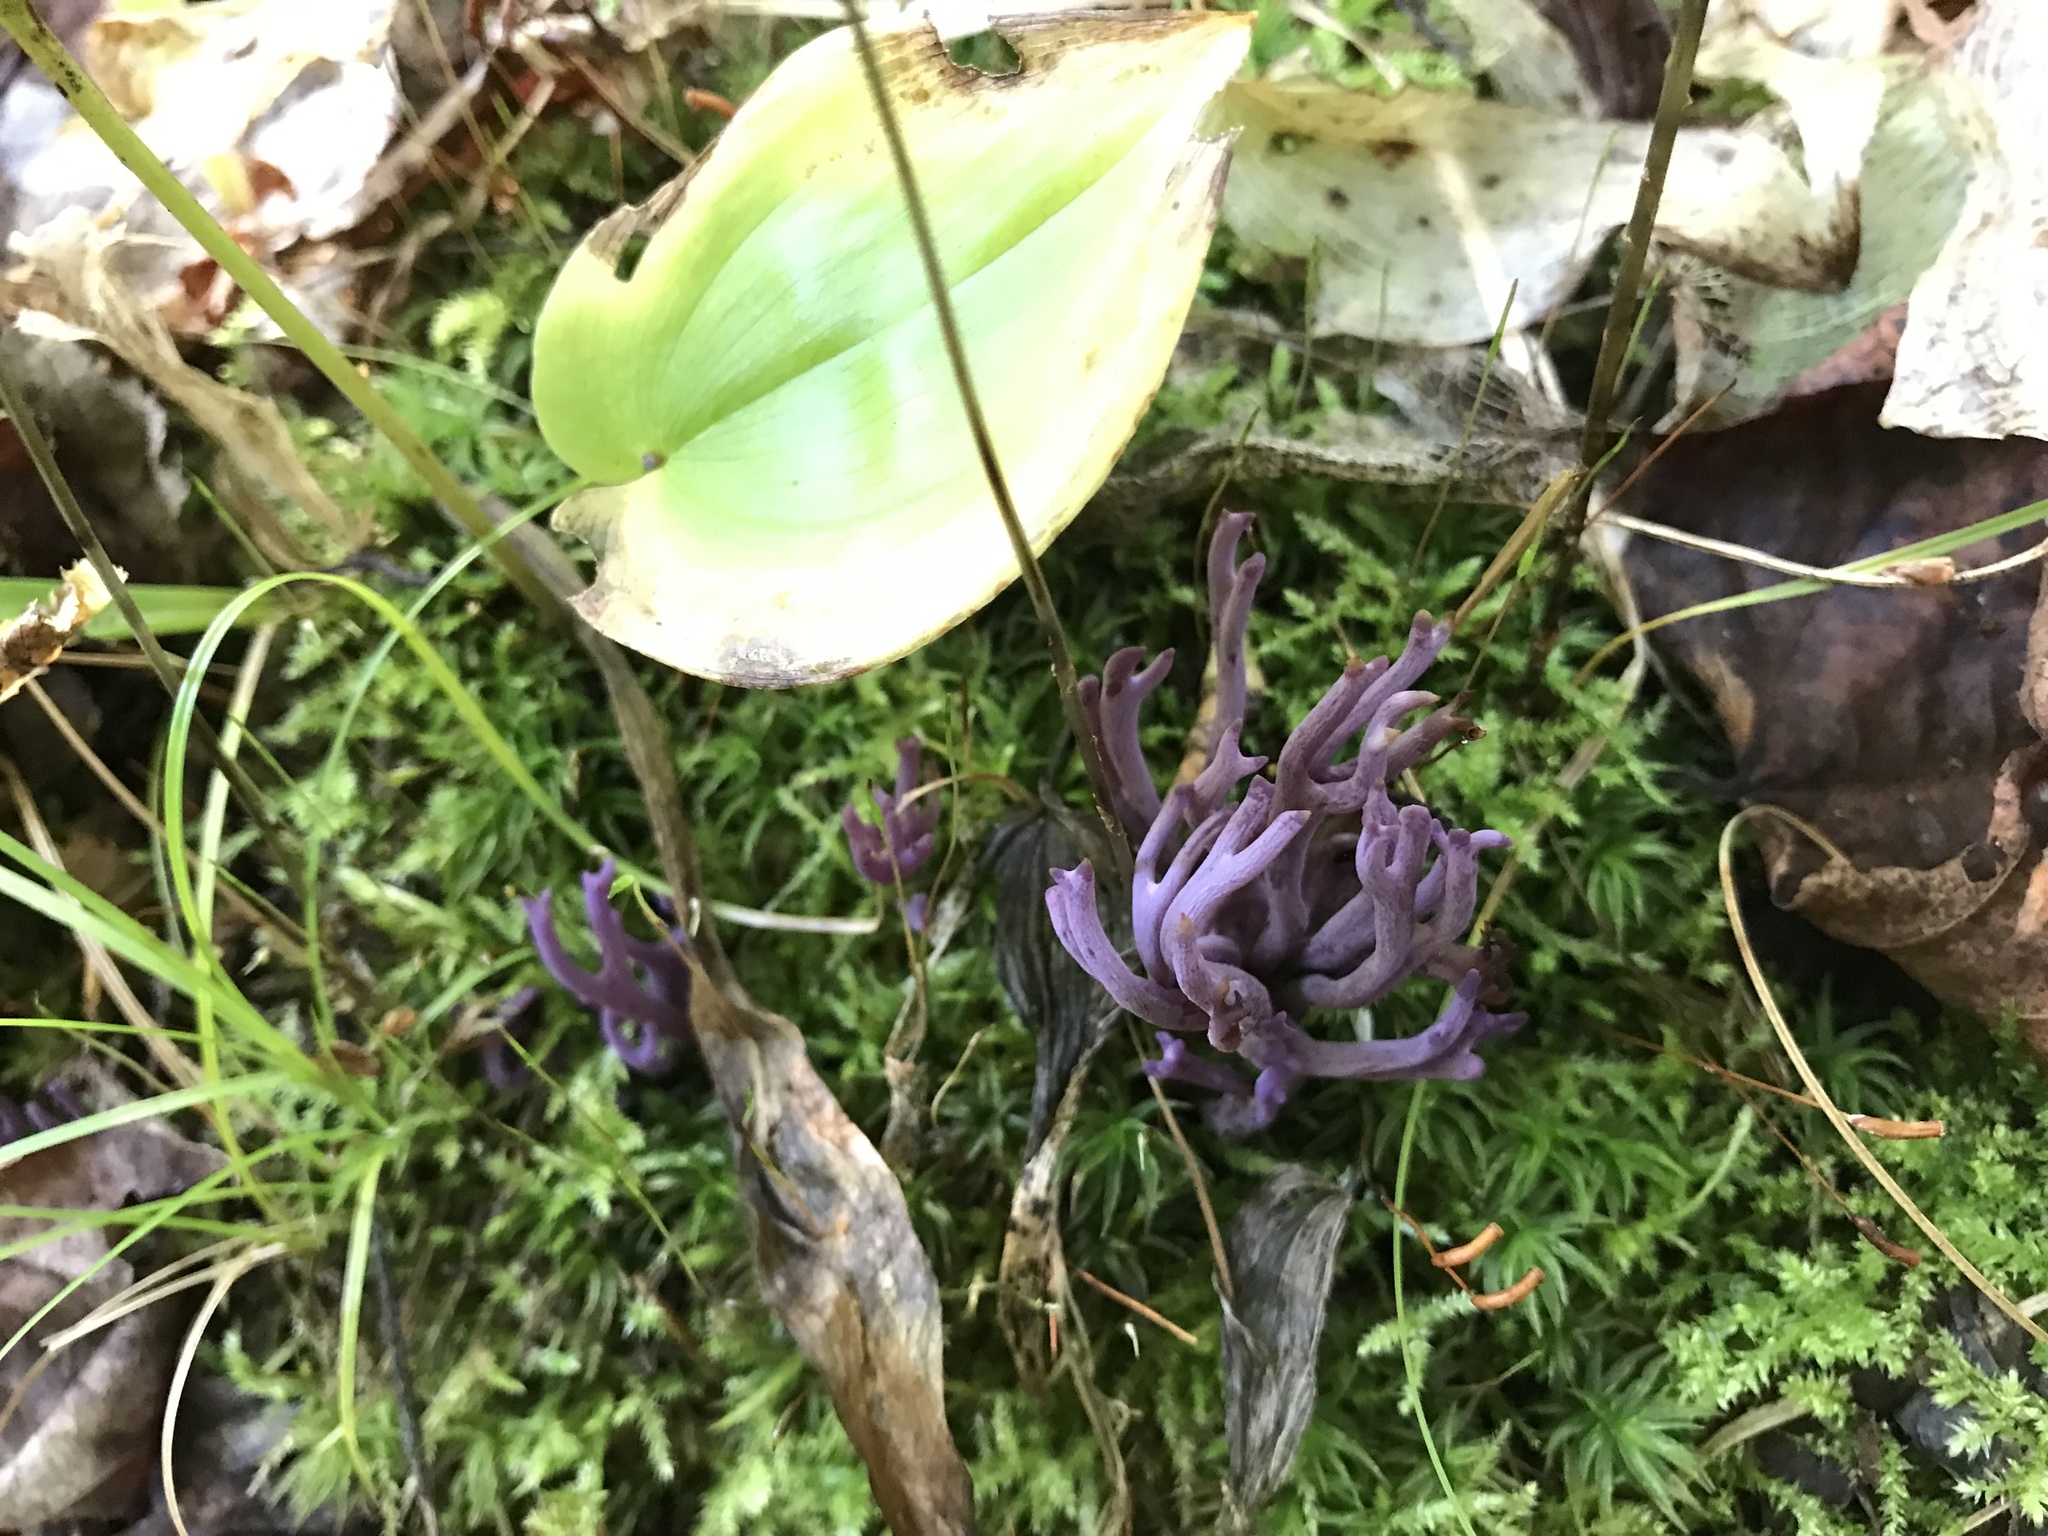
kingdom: Fungi
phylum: Basidiomycota
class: Agaricomycetes
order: Agaricales
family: Clavariaceae
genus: Clavaria
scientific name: Clavaria zollingeri
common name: Violet coral
